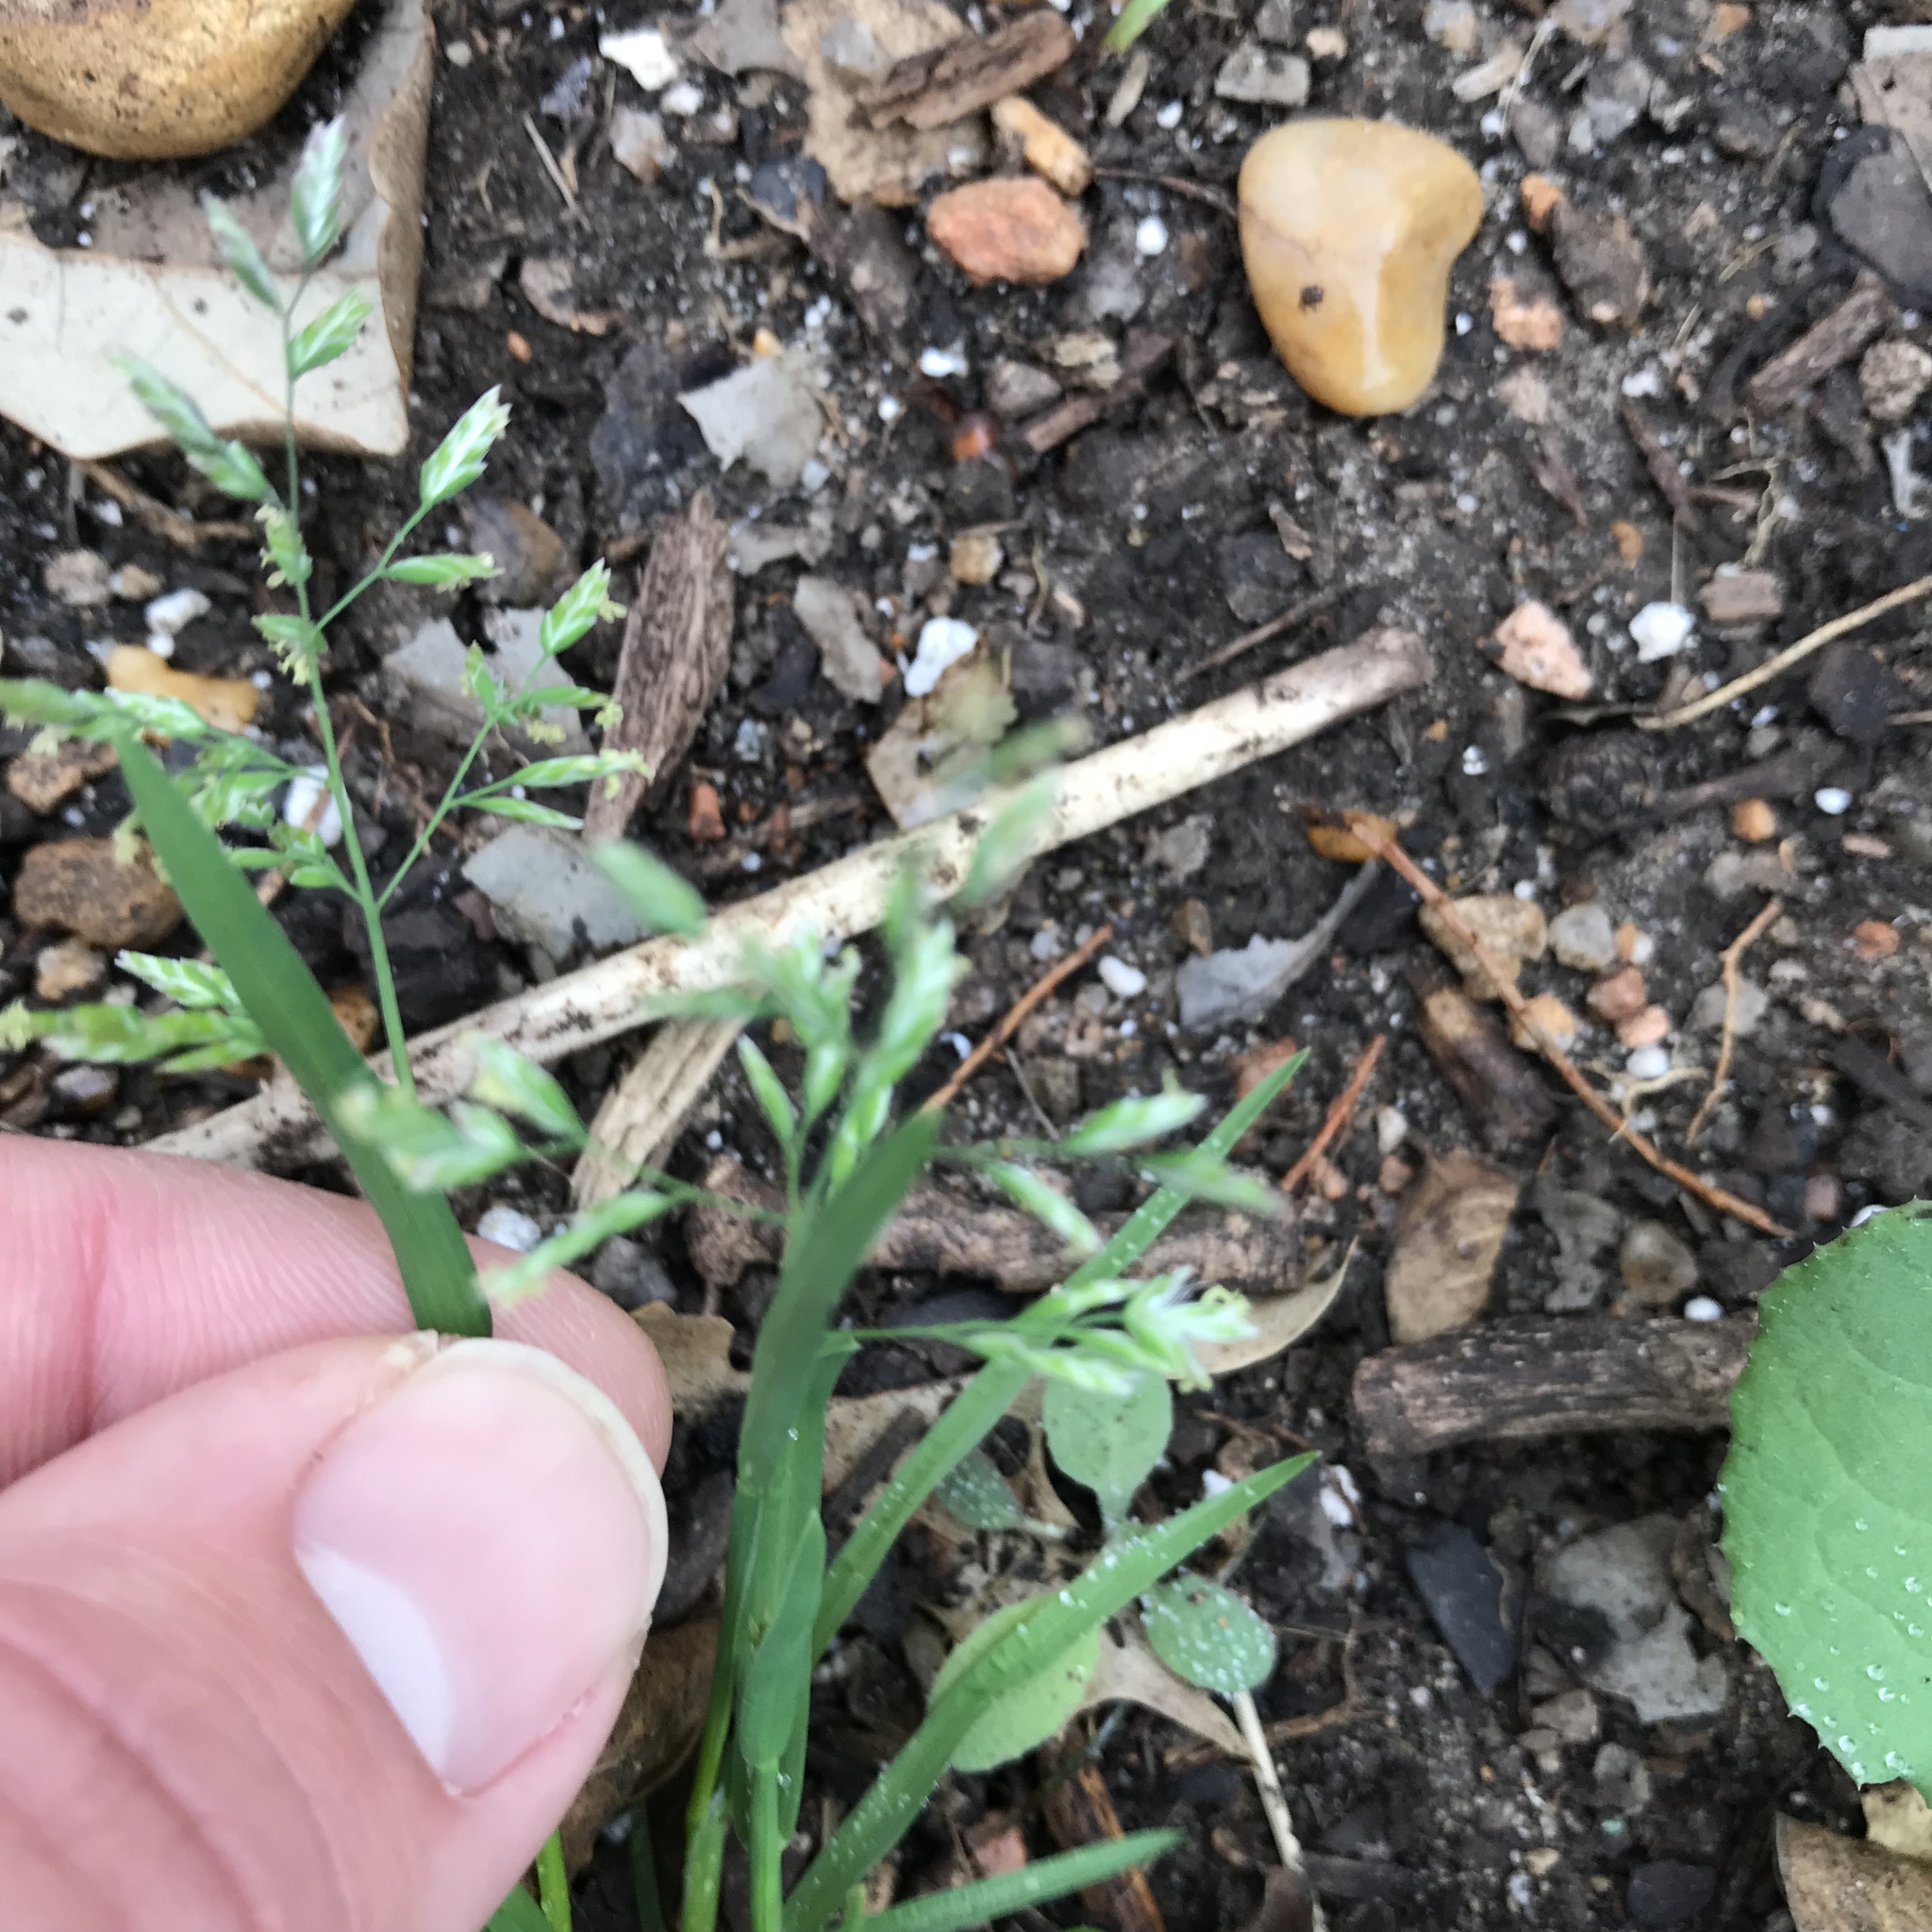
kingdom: Plantae
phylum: Tracheophyta
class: Liliopsida
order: Poales
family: Poaceae
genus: Poa
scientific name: Poa annua
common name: Annual bluegrass
